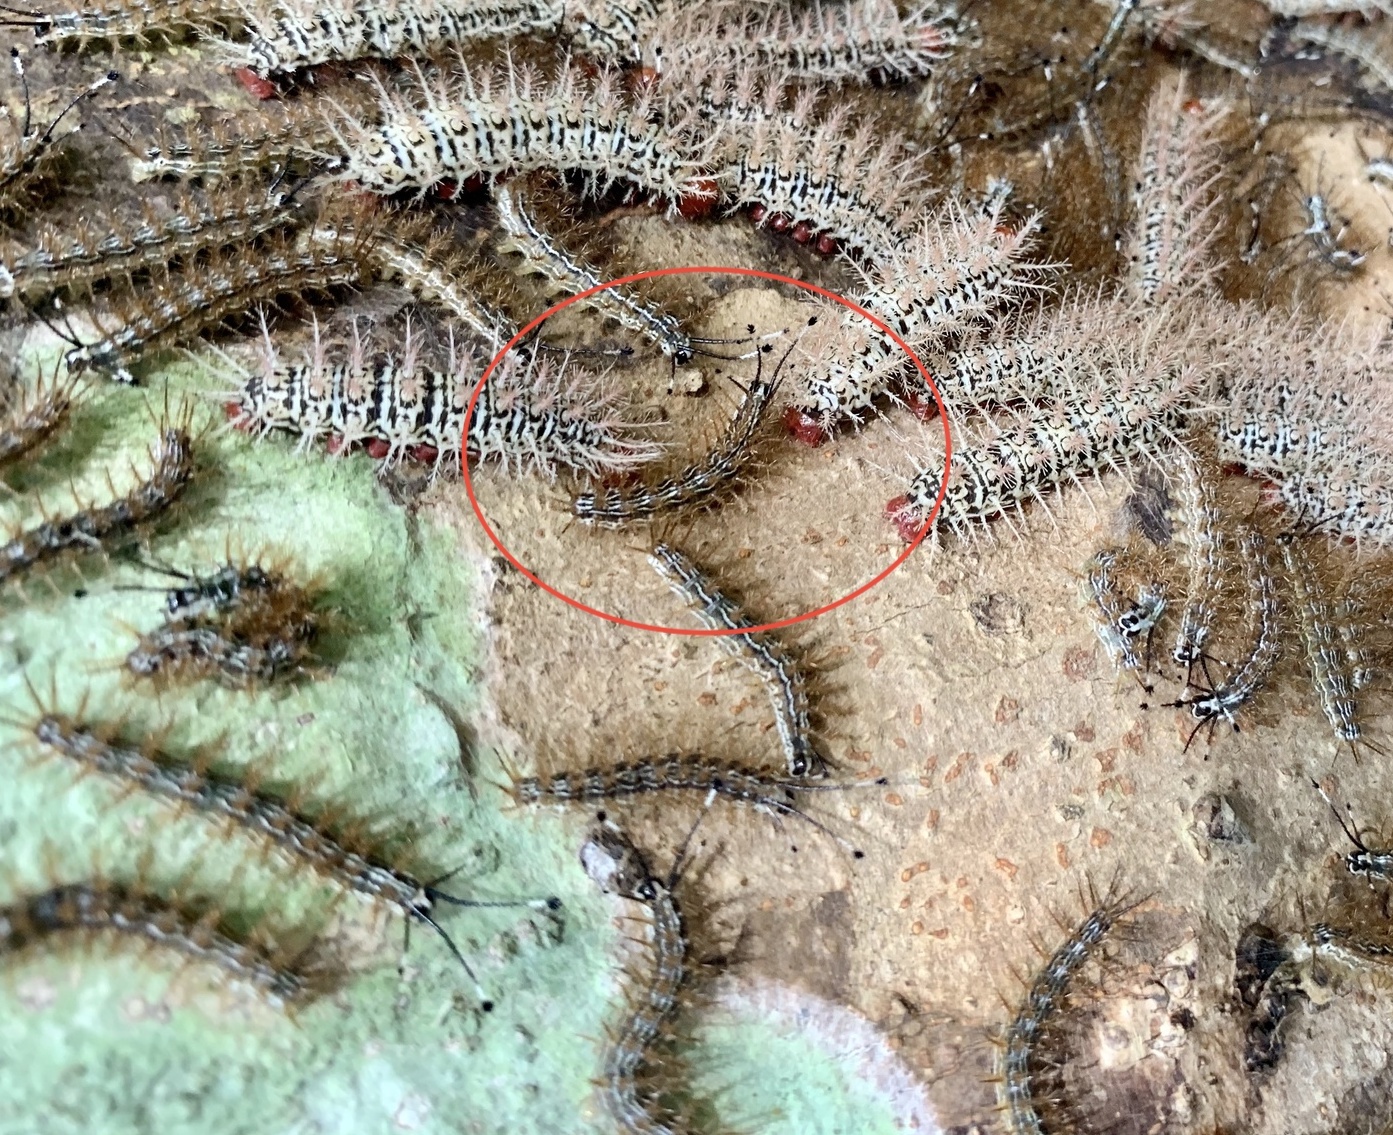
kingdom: Animalia
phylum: Arthropoda
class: Insecta
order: Lepidoptera
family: Saturniidae
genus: Hylesia
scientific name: Hylesia continua
